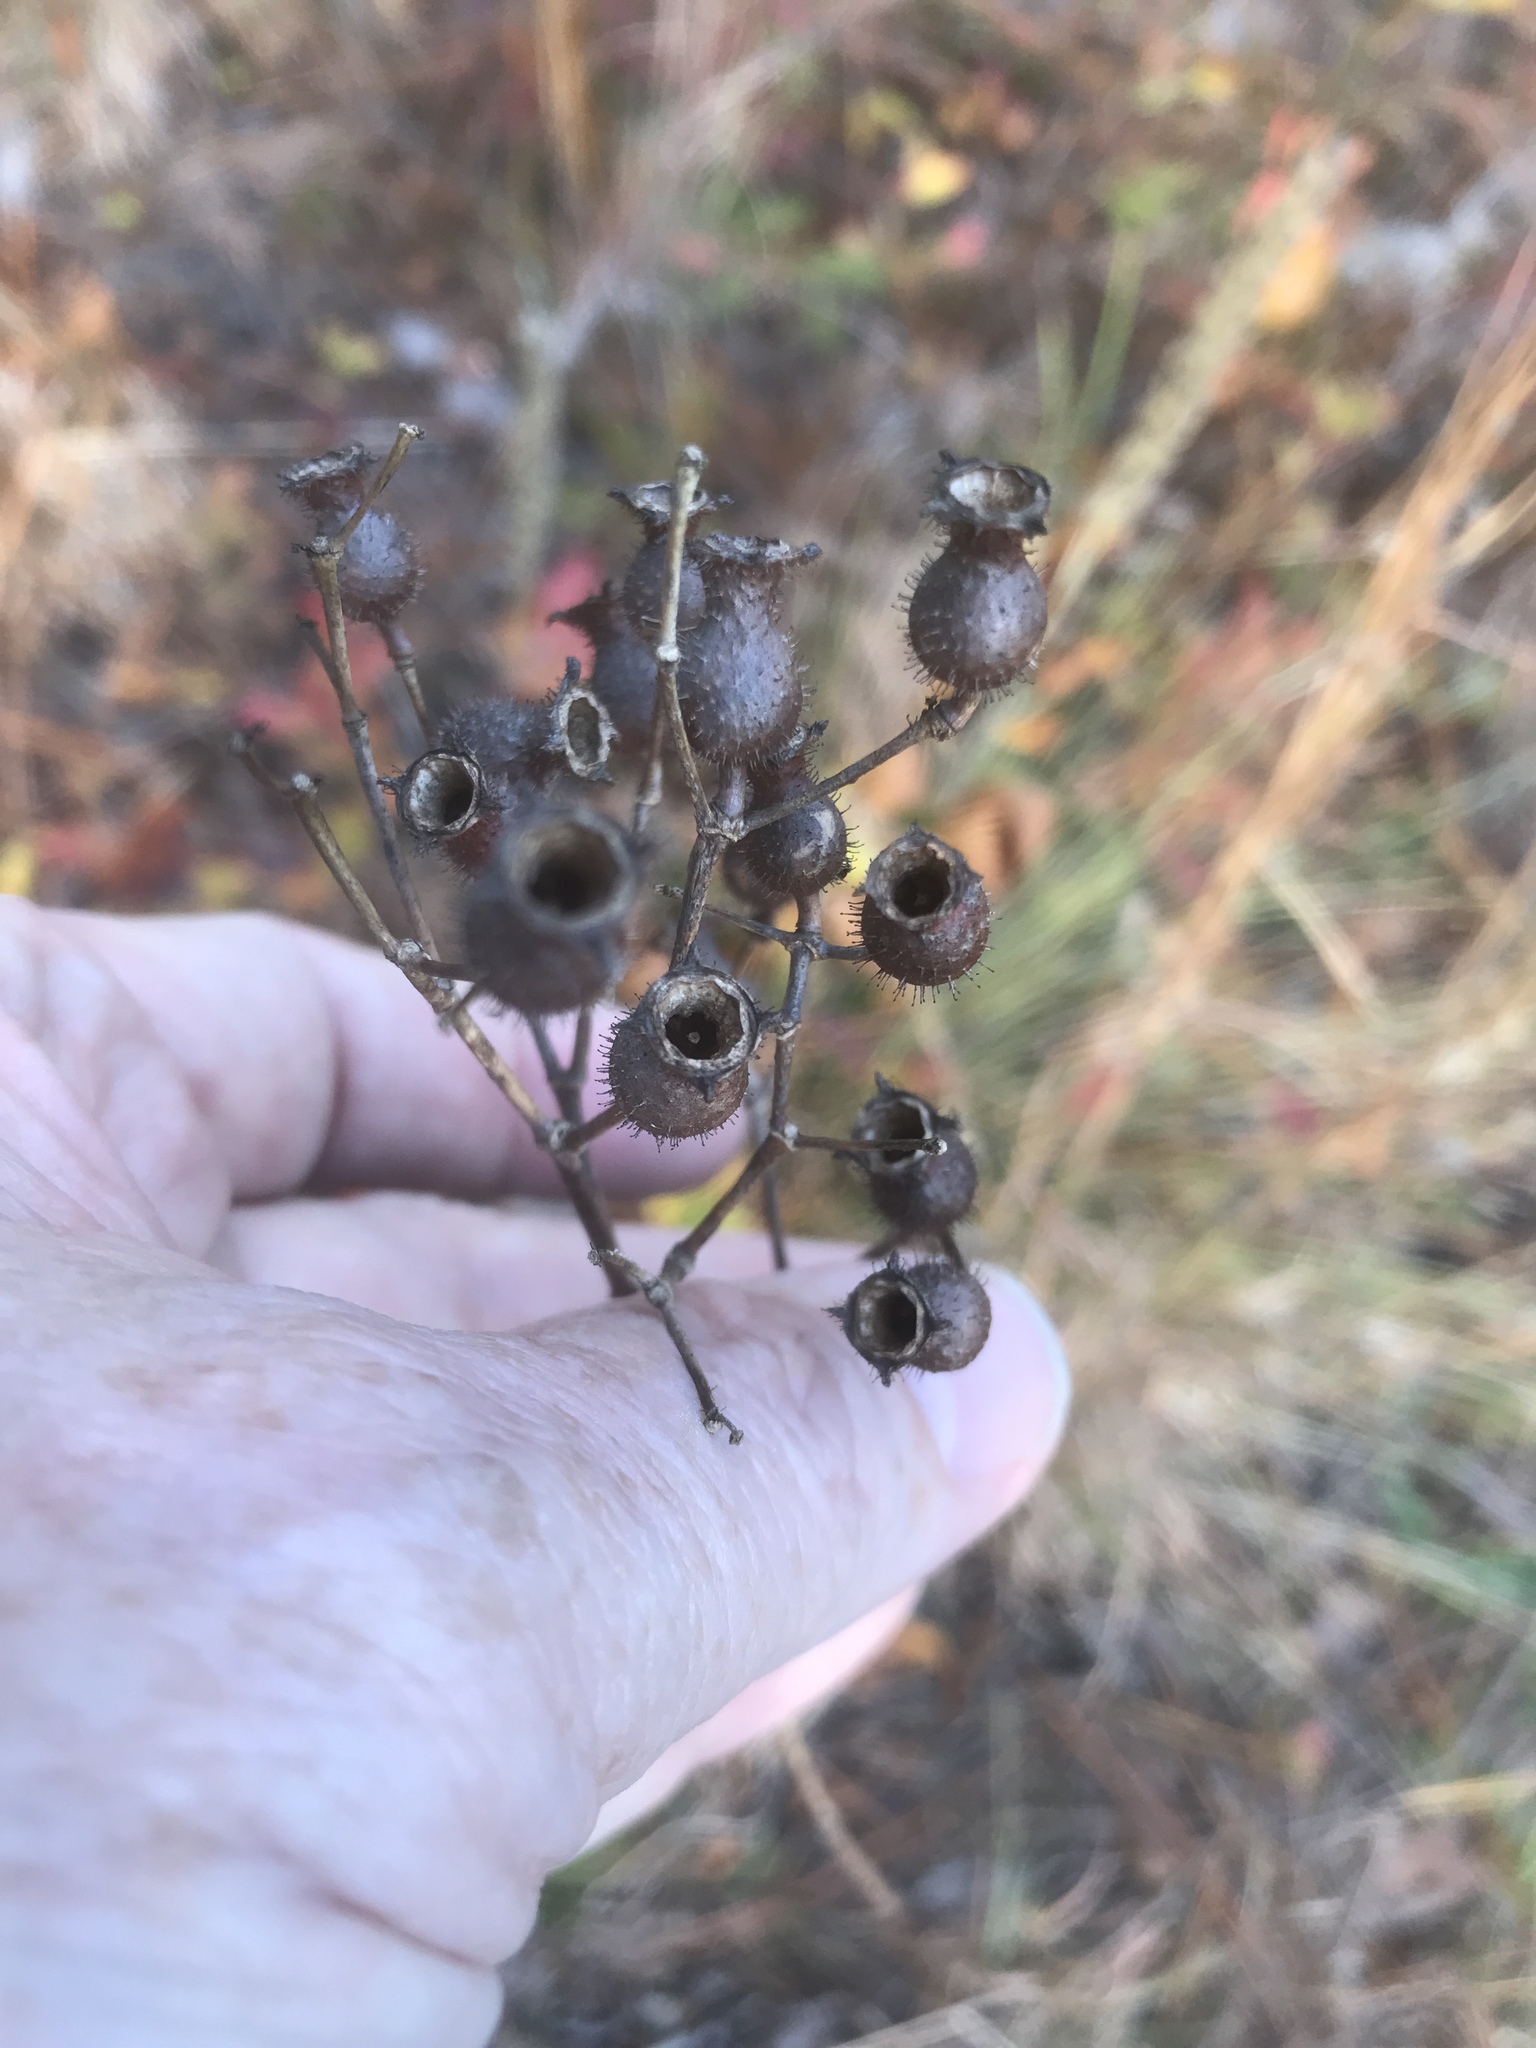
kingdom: Plantae
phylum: Tracheophyta
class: Magnoliopsida
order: Myrtales
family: Melastomataceae
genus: Rhexia
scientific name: Rhexia alifanus
